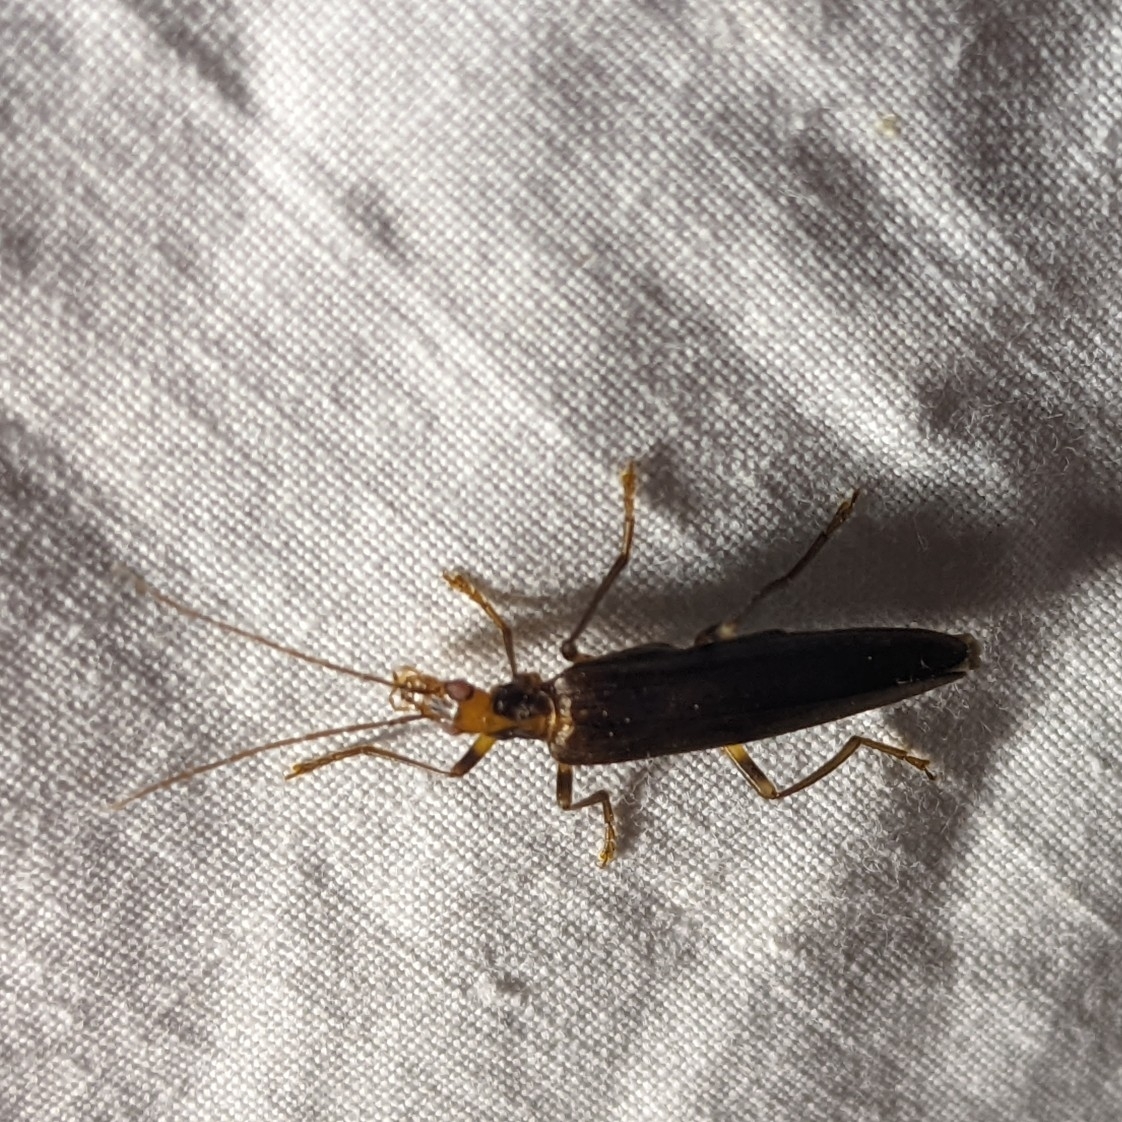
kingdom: Animalia
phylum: Arthropoda
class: Insecta
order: Coleoptera
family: Oedemeridae
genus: Oedemera
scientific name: Oedemera femoralis
